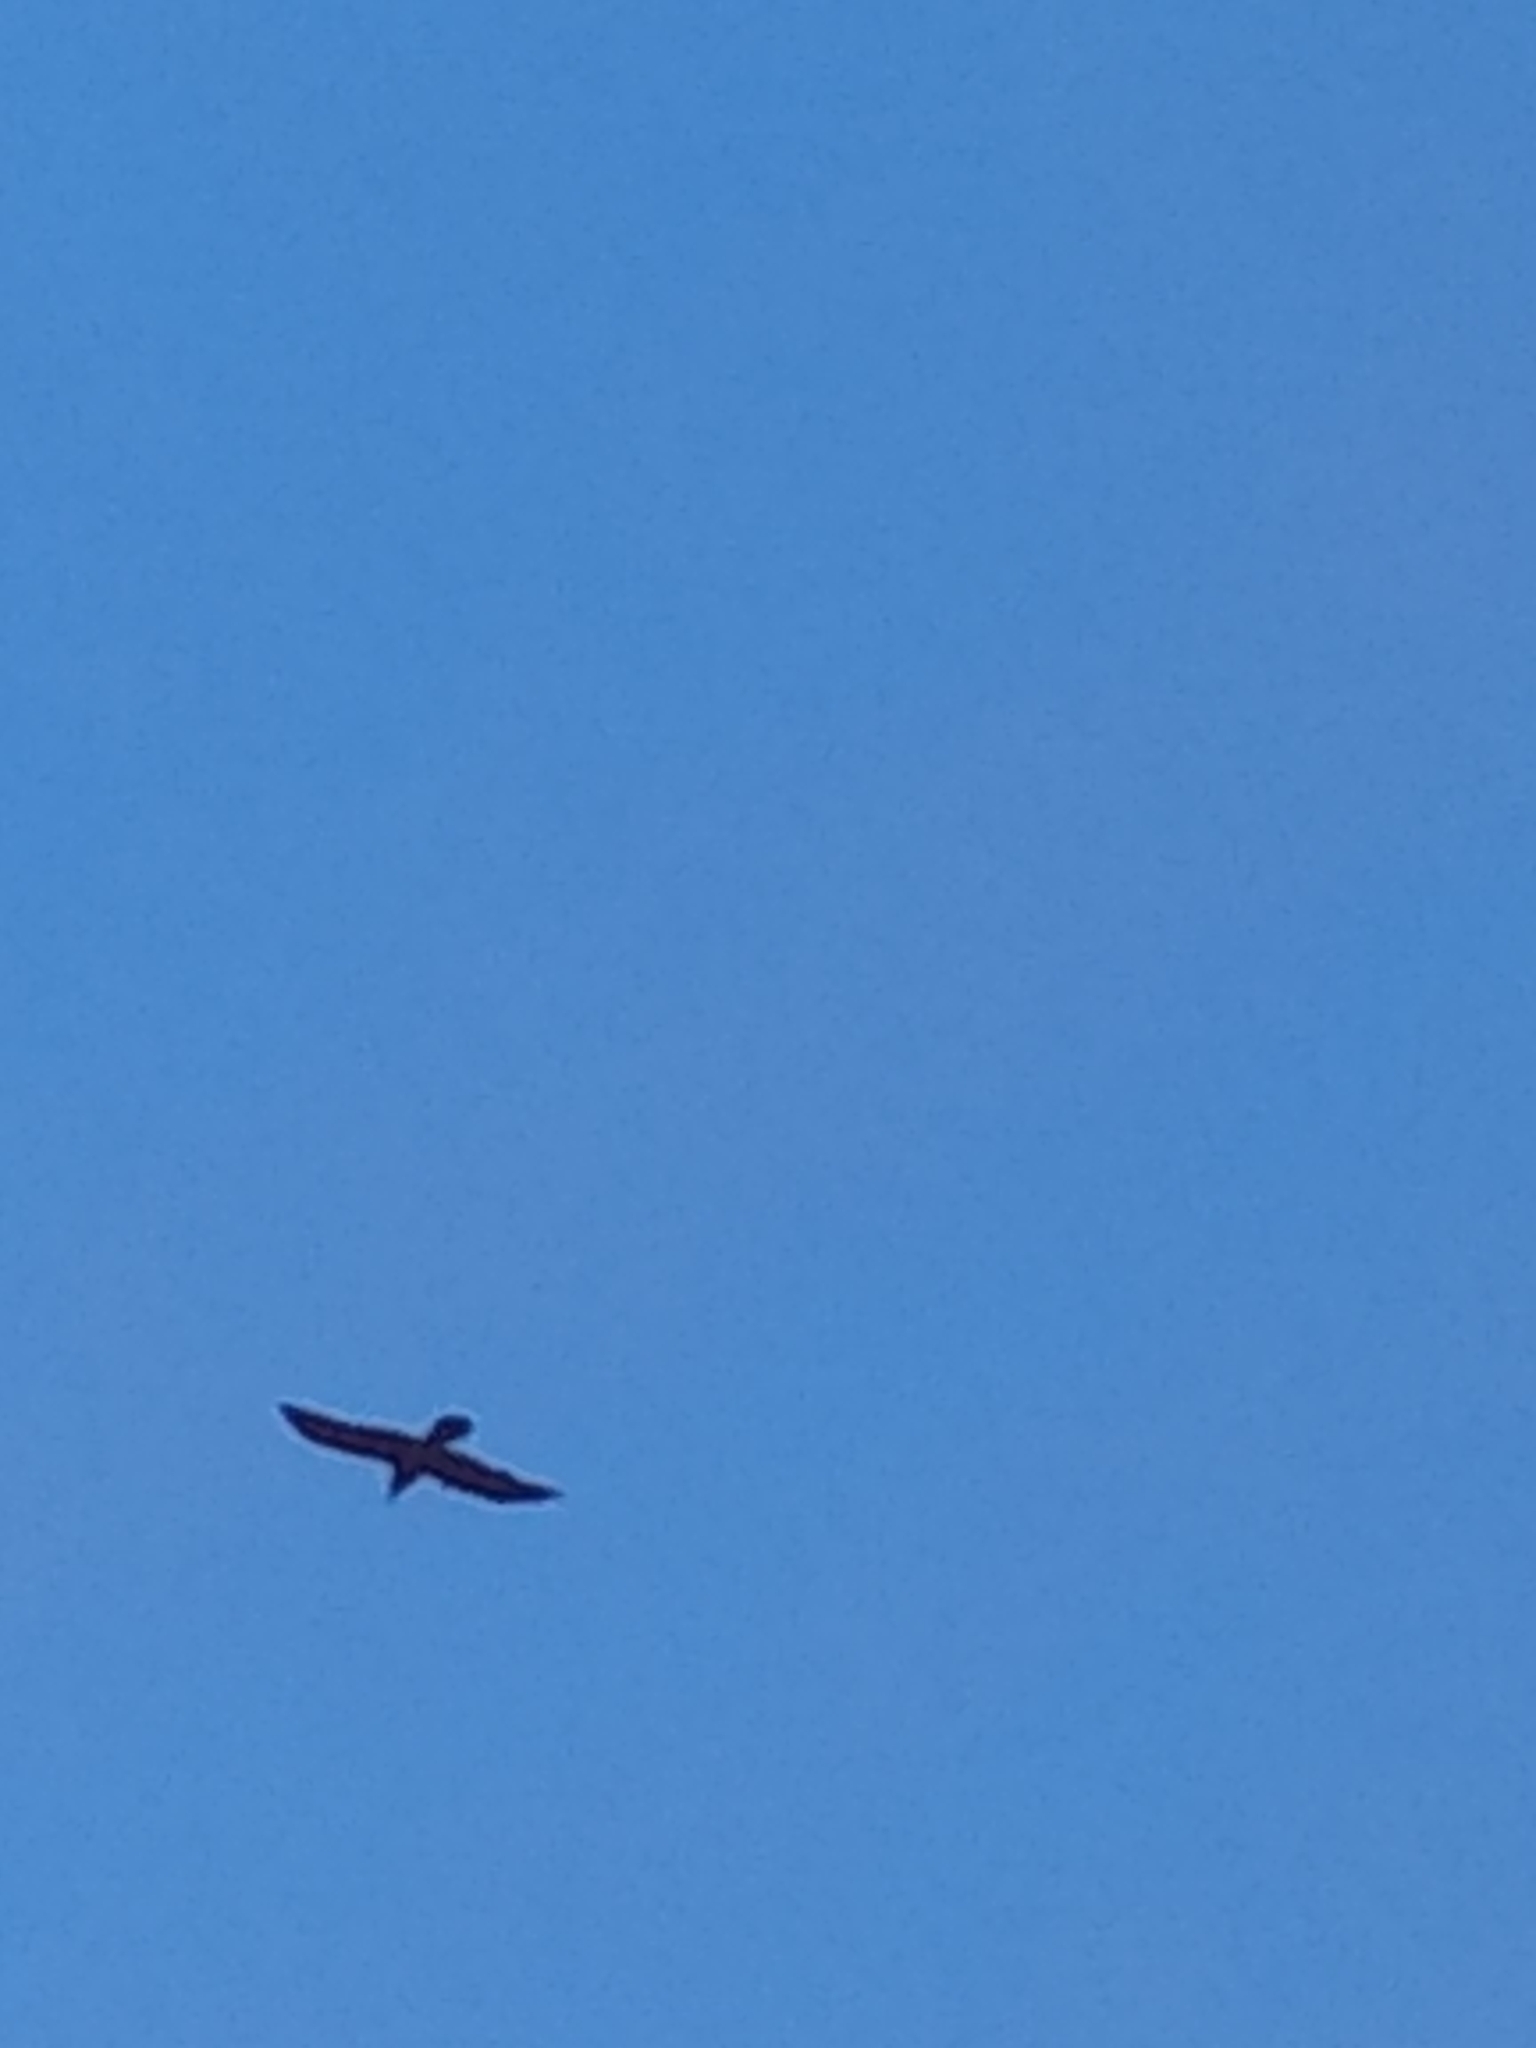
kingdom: Animalia
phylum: Chordata
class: Aves
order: Passeriformes
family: Corvidae
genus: Corvus
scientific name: Corvus corax
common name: Common raven
